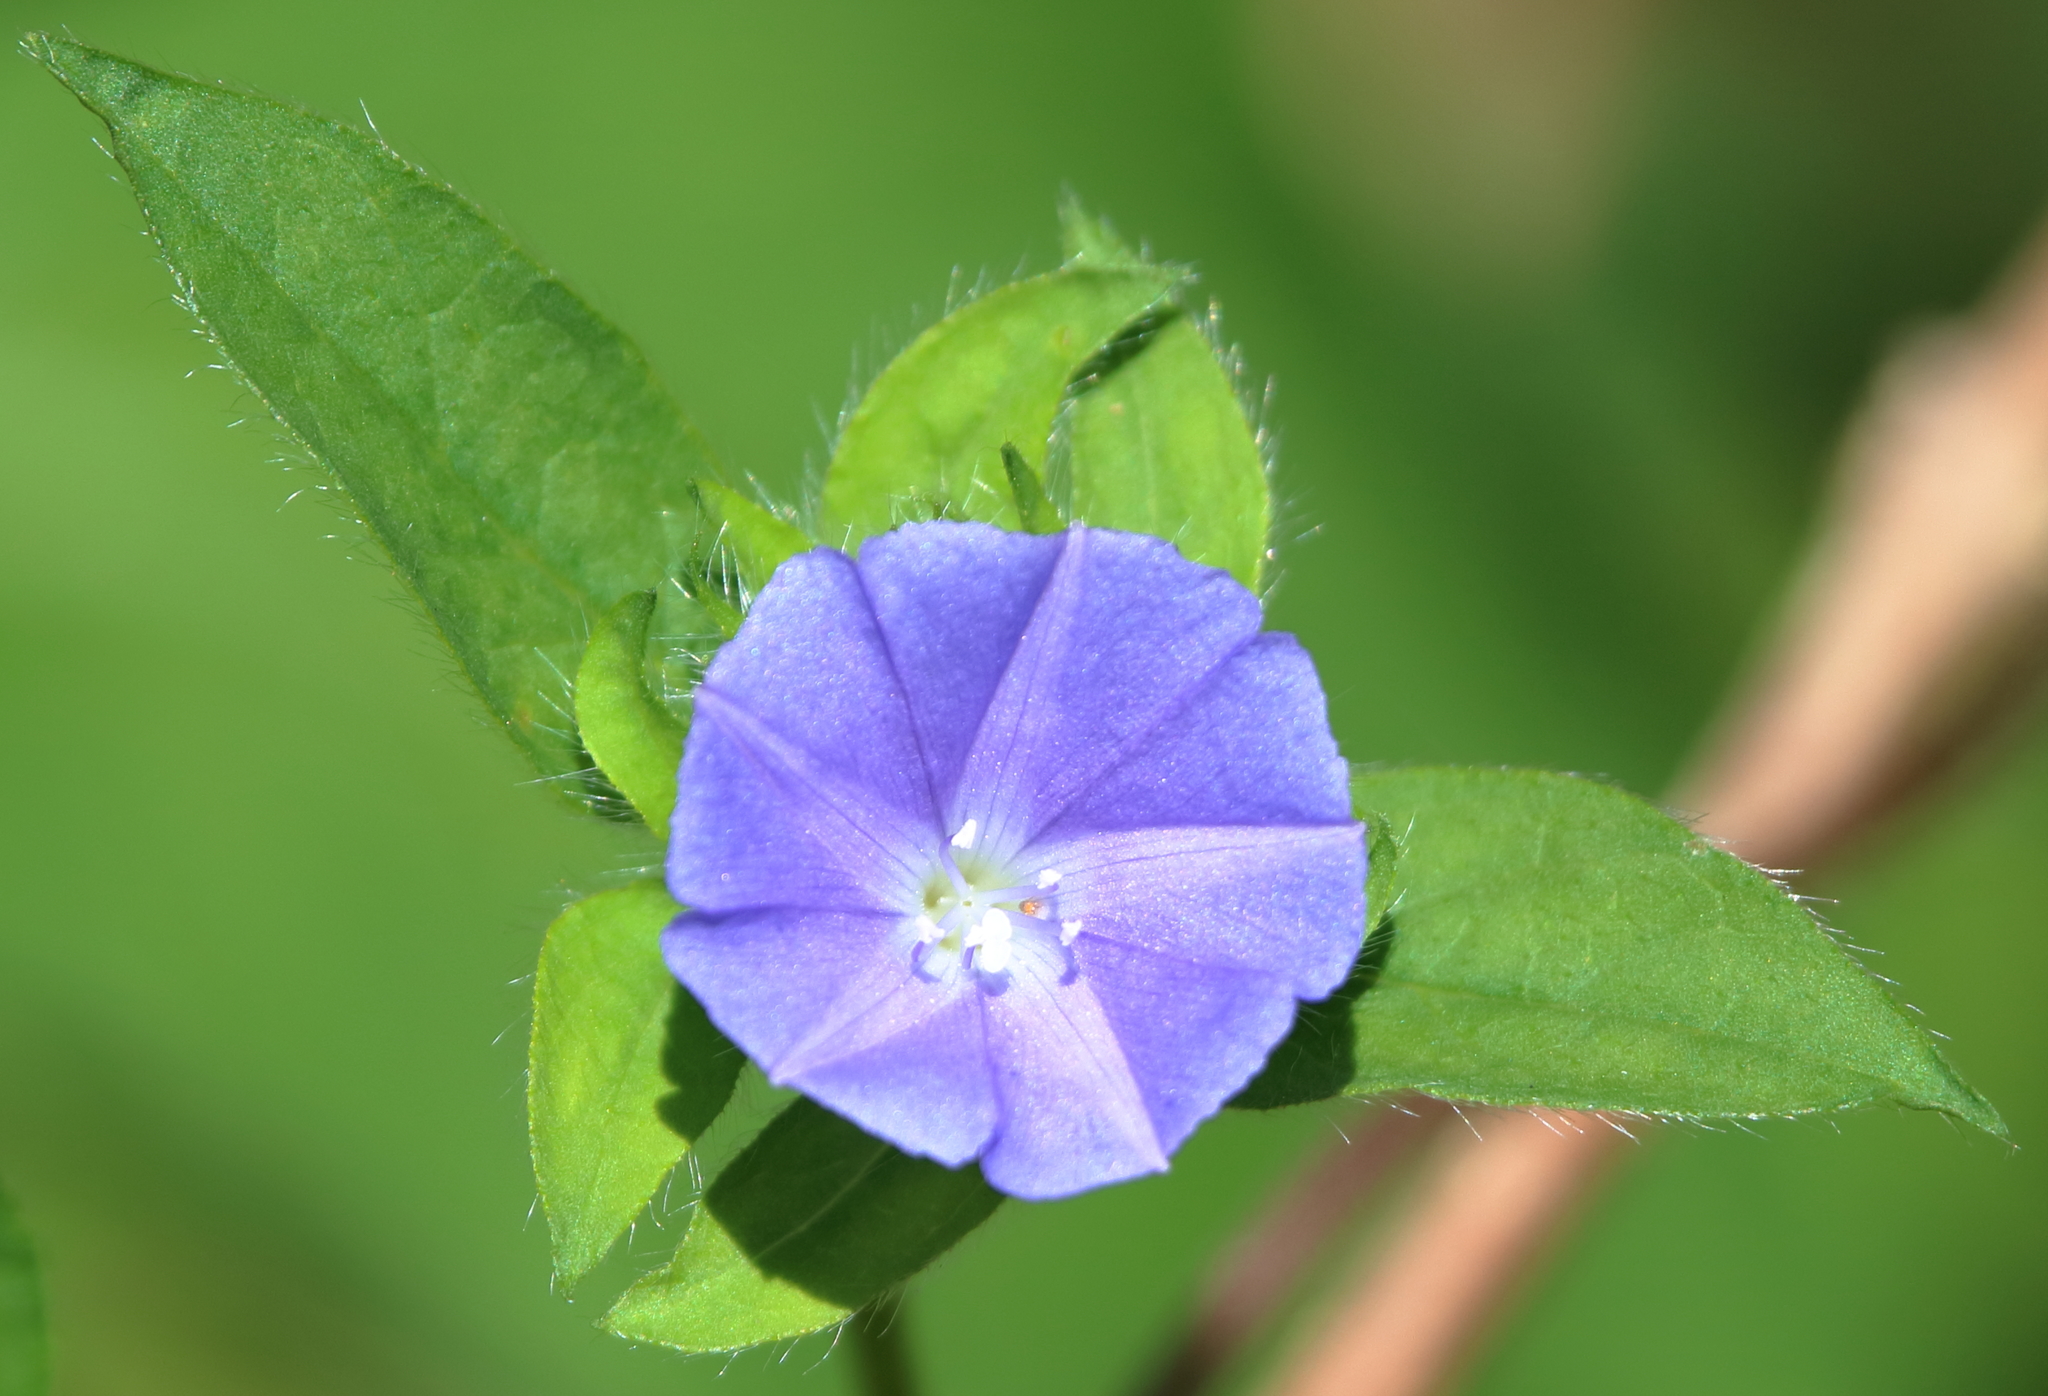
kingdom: Plantae
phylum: Tracheophyta
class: Magnoliopsida
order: Solanales
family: Convolvulaceae
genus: Jacquemontia
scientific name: Jacquemontia tamnifolia
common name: Hairy clustervine
